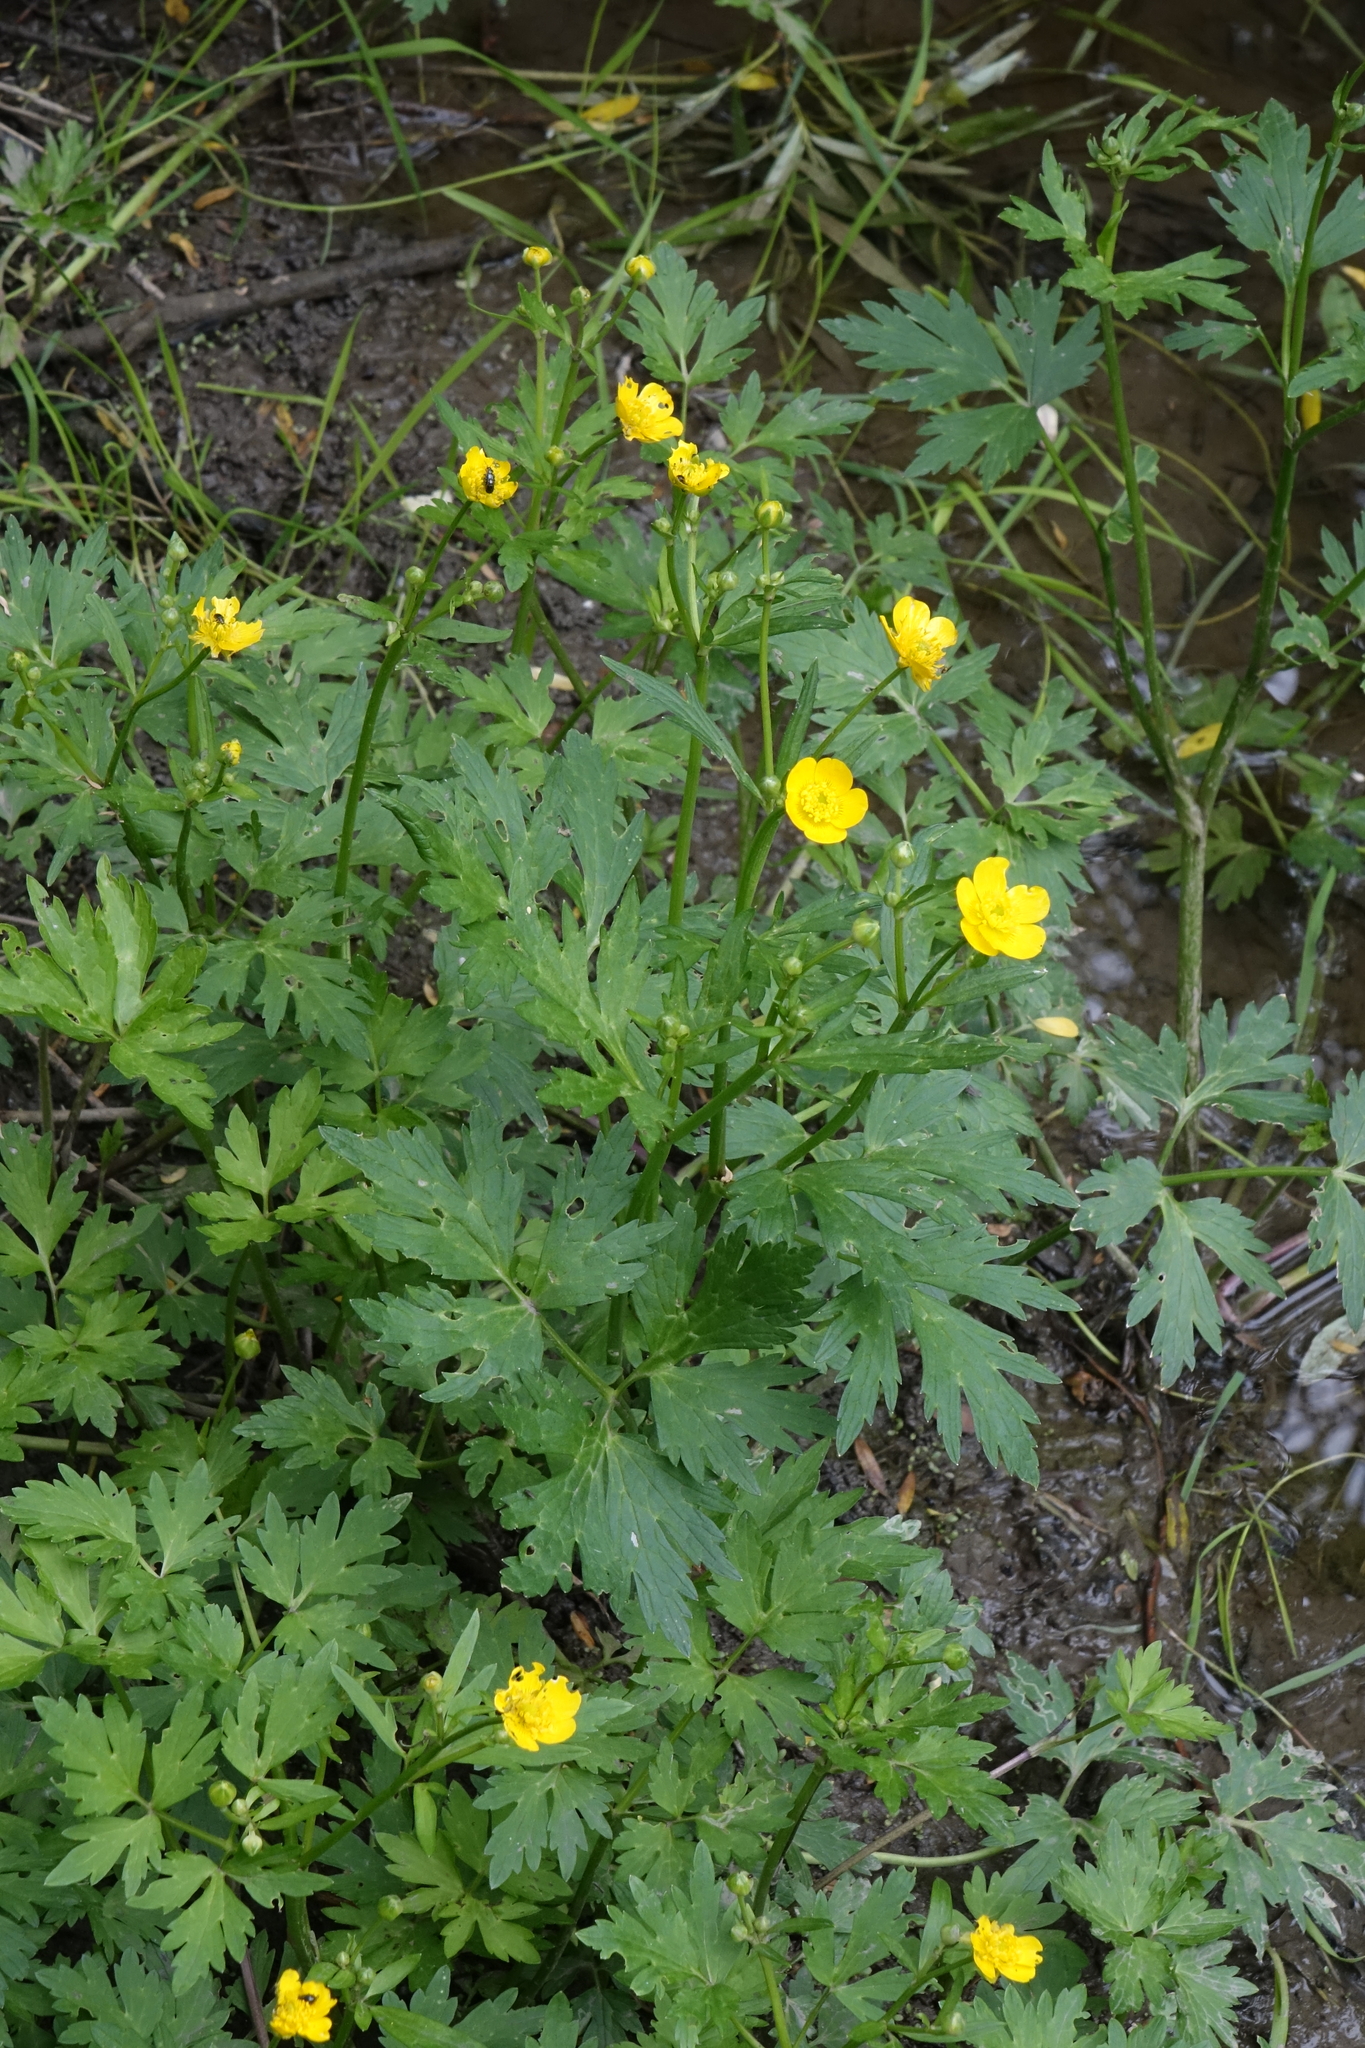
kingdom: Plantae
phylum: Tracheophyta
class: Magnoliopsida
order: Ranunculales
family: Ranunculaceae
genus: Ranunculus
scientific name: Ranunculus repens
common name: Creeping buttercup
